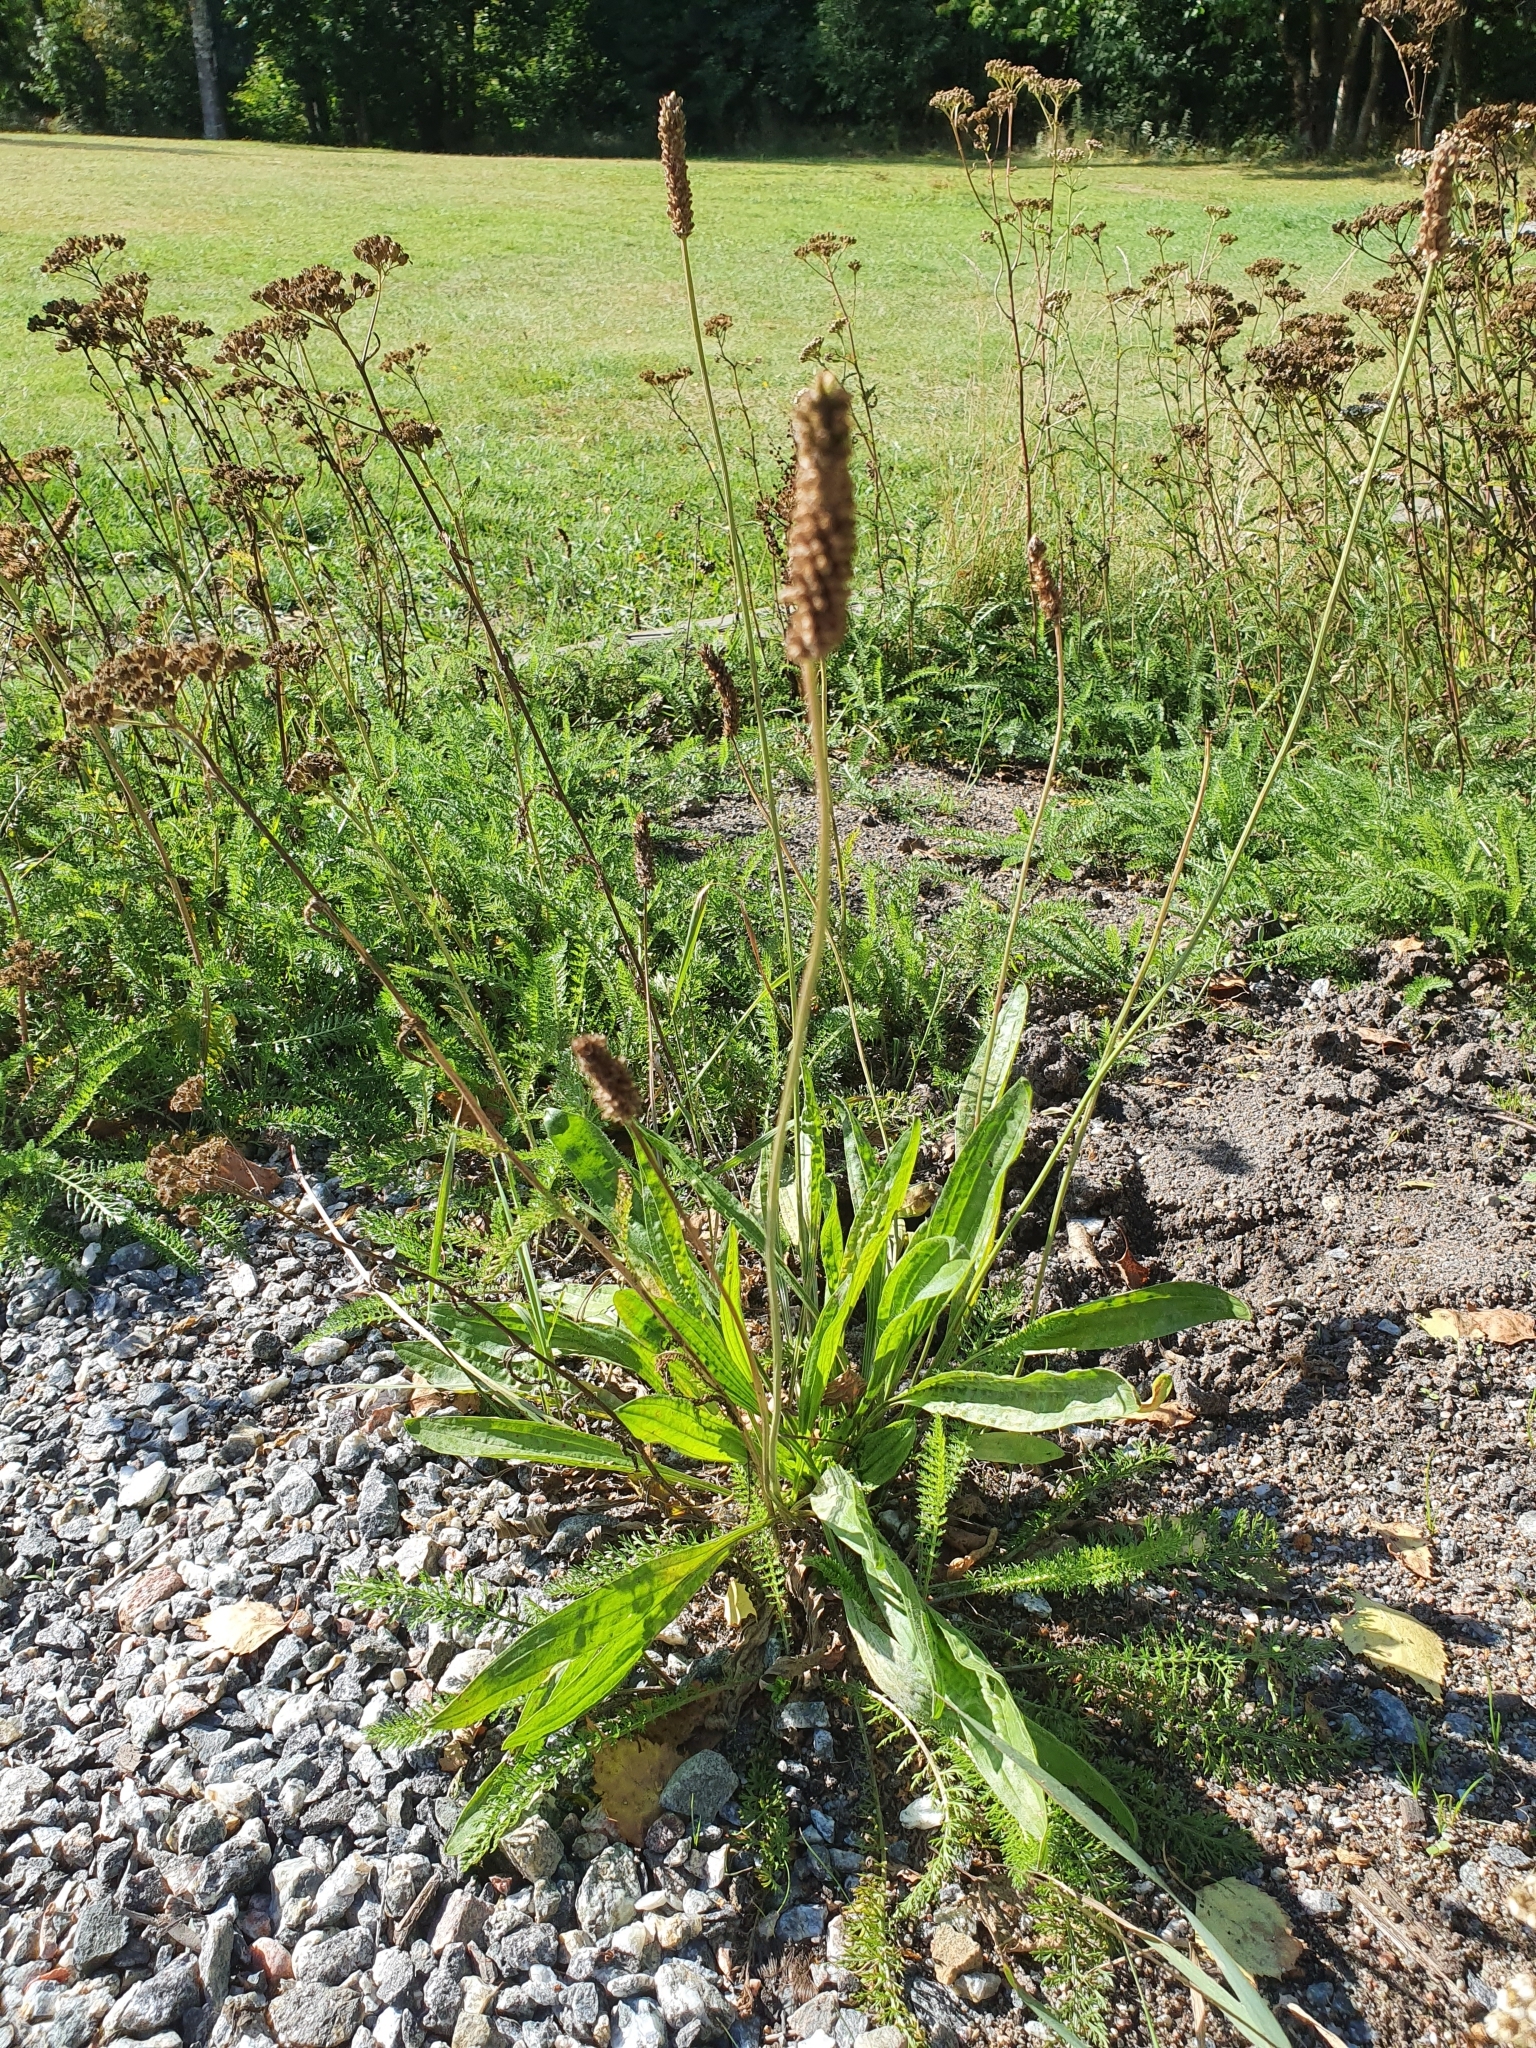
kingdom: Plantae
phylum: Tracheophyta
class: Magnoliopsida
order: Lamiales
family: Plantaginaceae
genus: Plantago
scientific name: Plantago lanceolata
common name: Ribwort plantain
